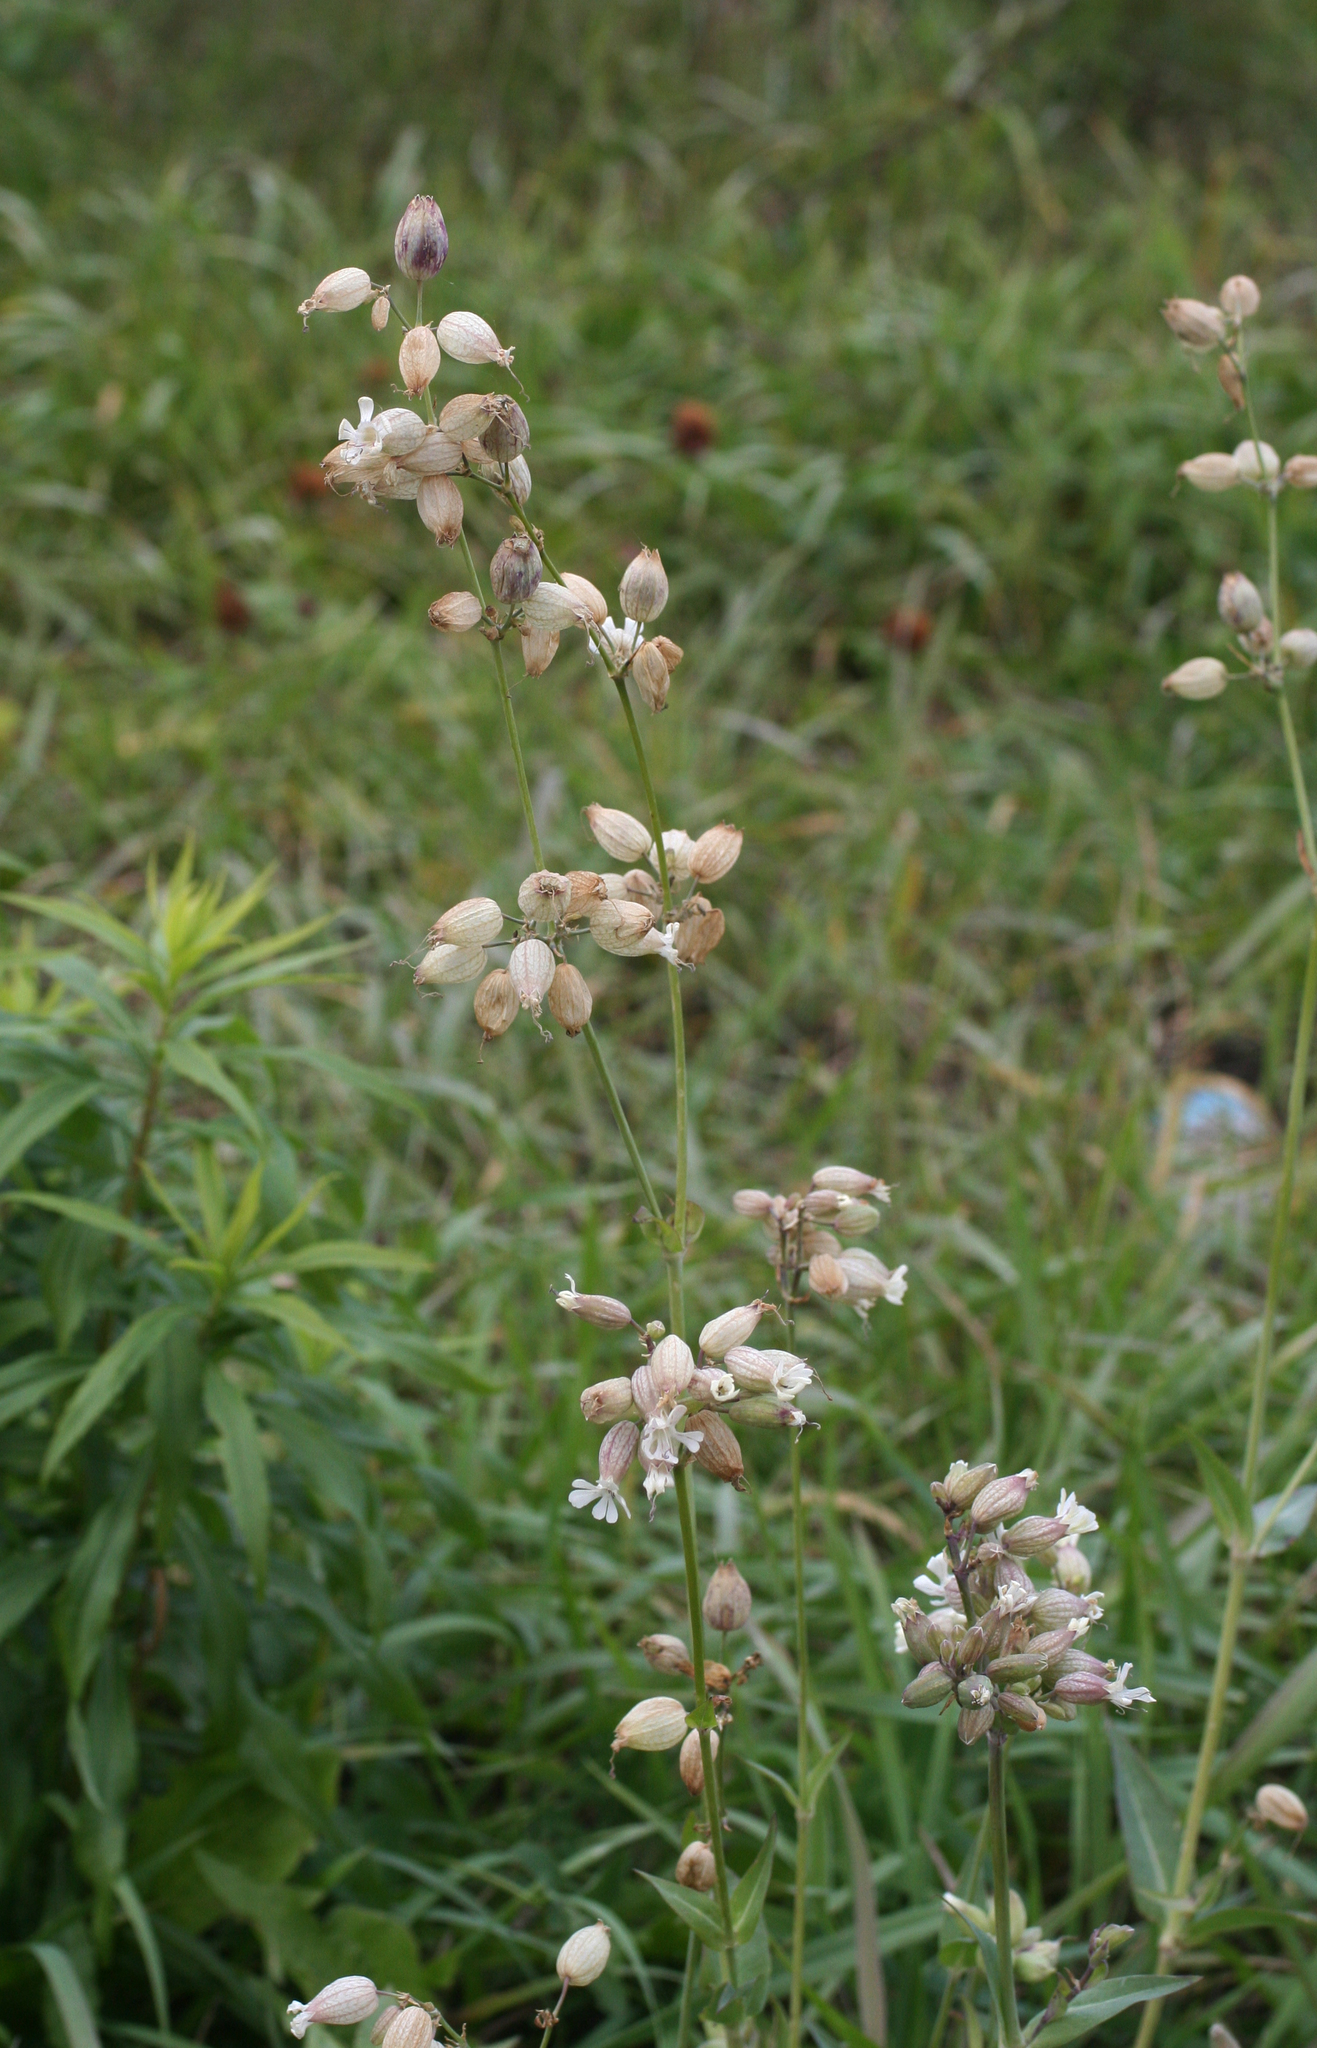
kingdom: Plantae
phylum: Tracheophyta
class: Magnoliopsida
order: Caryophyllales
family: Caryophyllaceae
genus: Silene
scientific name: Silene vulgaris
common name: Bladder campion
